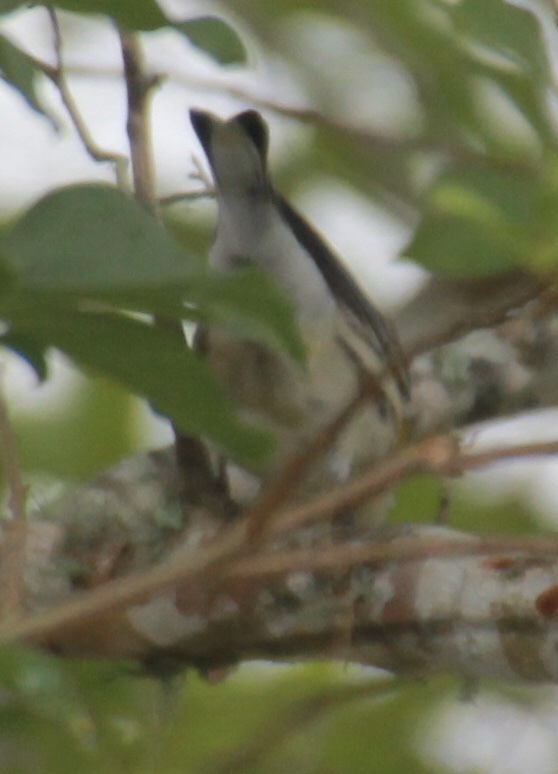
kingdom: Animalia
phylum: Chordata
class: Aves
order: Passeriformes
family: Parulidae
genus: Setophaga
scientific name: Setophaga coronata
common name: Myrtle warbler
